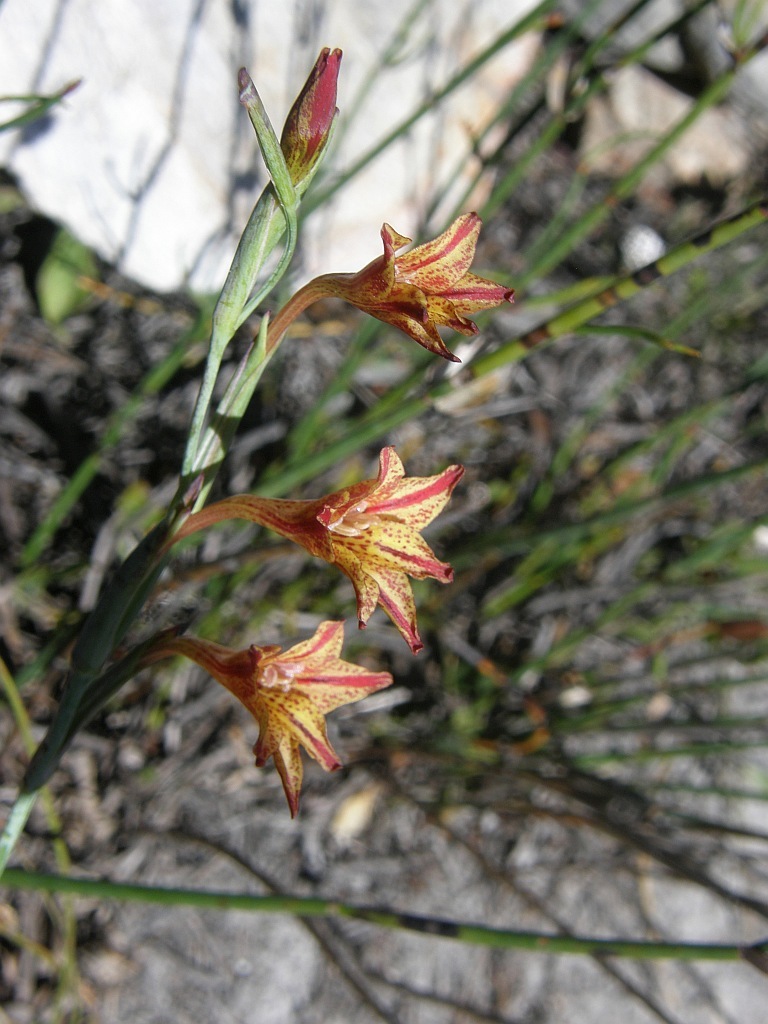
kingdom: Plantae
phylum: Tracheophyta
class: Liliopsida
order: Asparagales
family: Iridaceae
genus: Gladiolus
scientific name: Gladiolus emiliae
